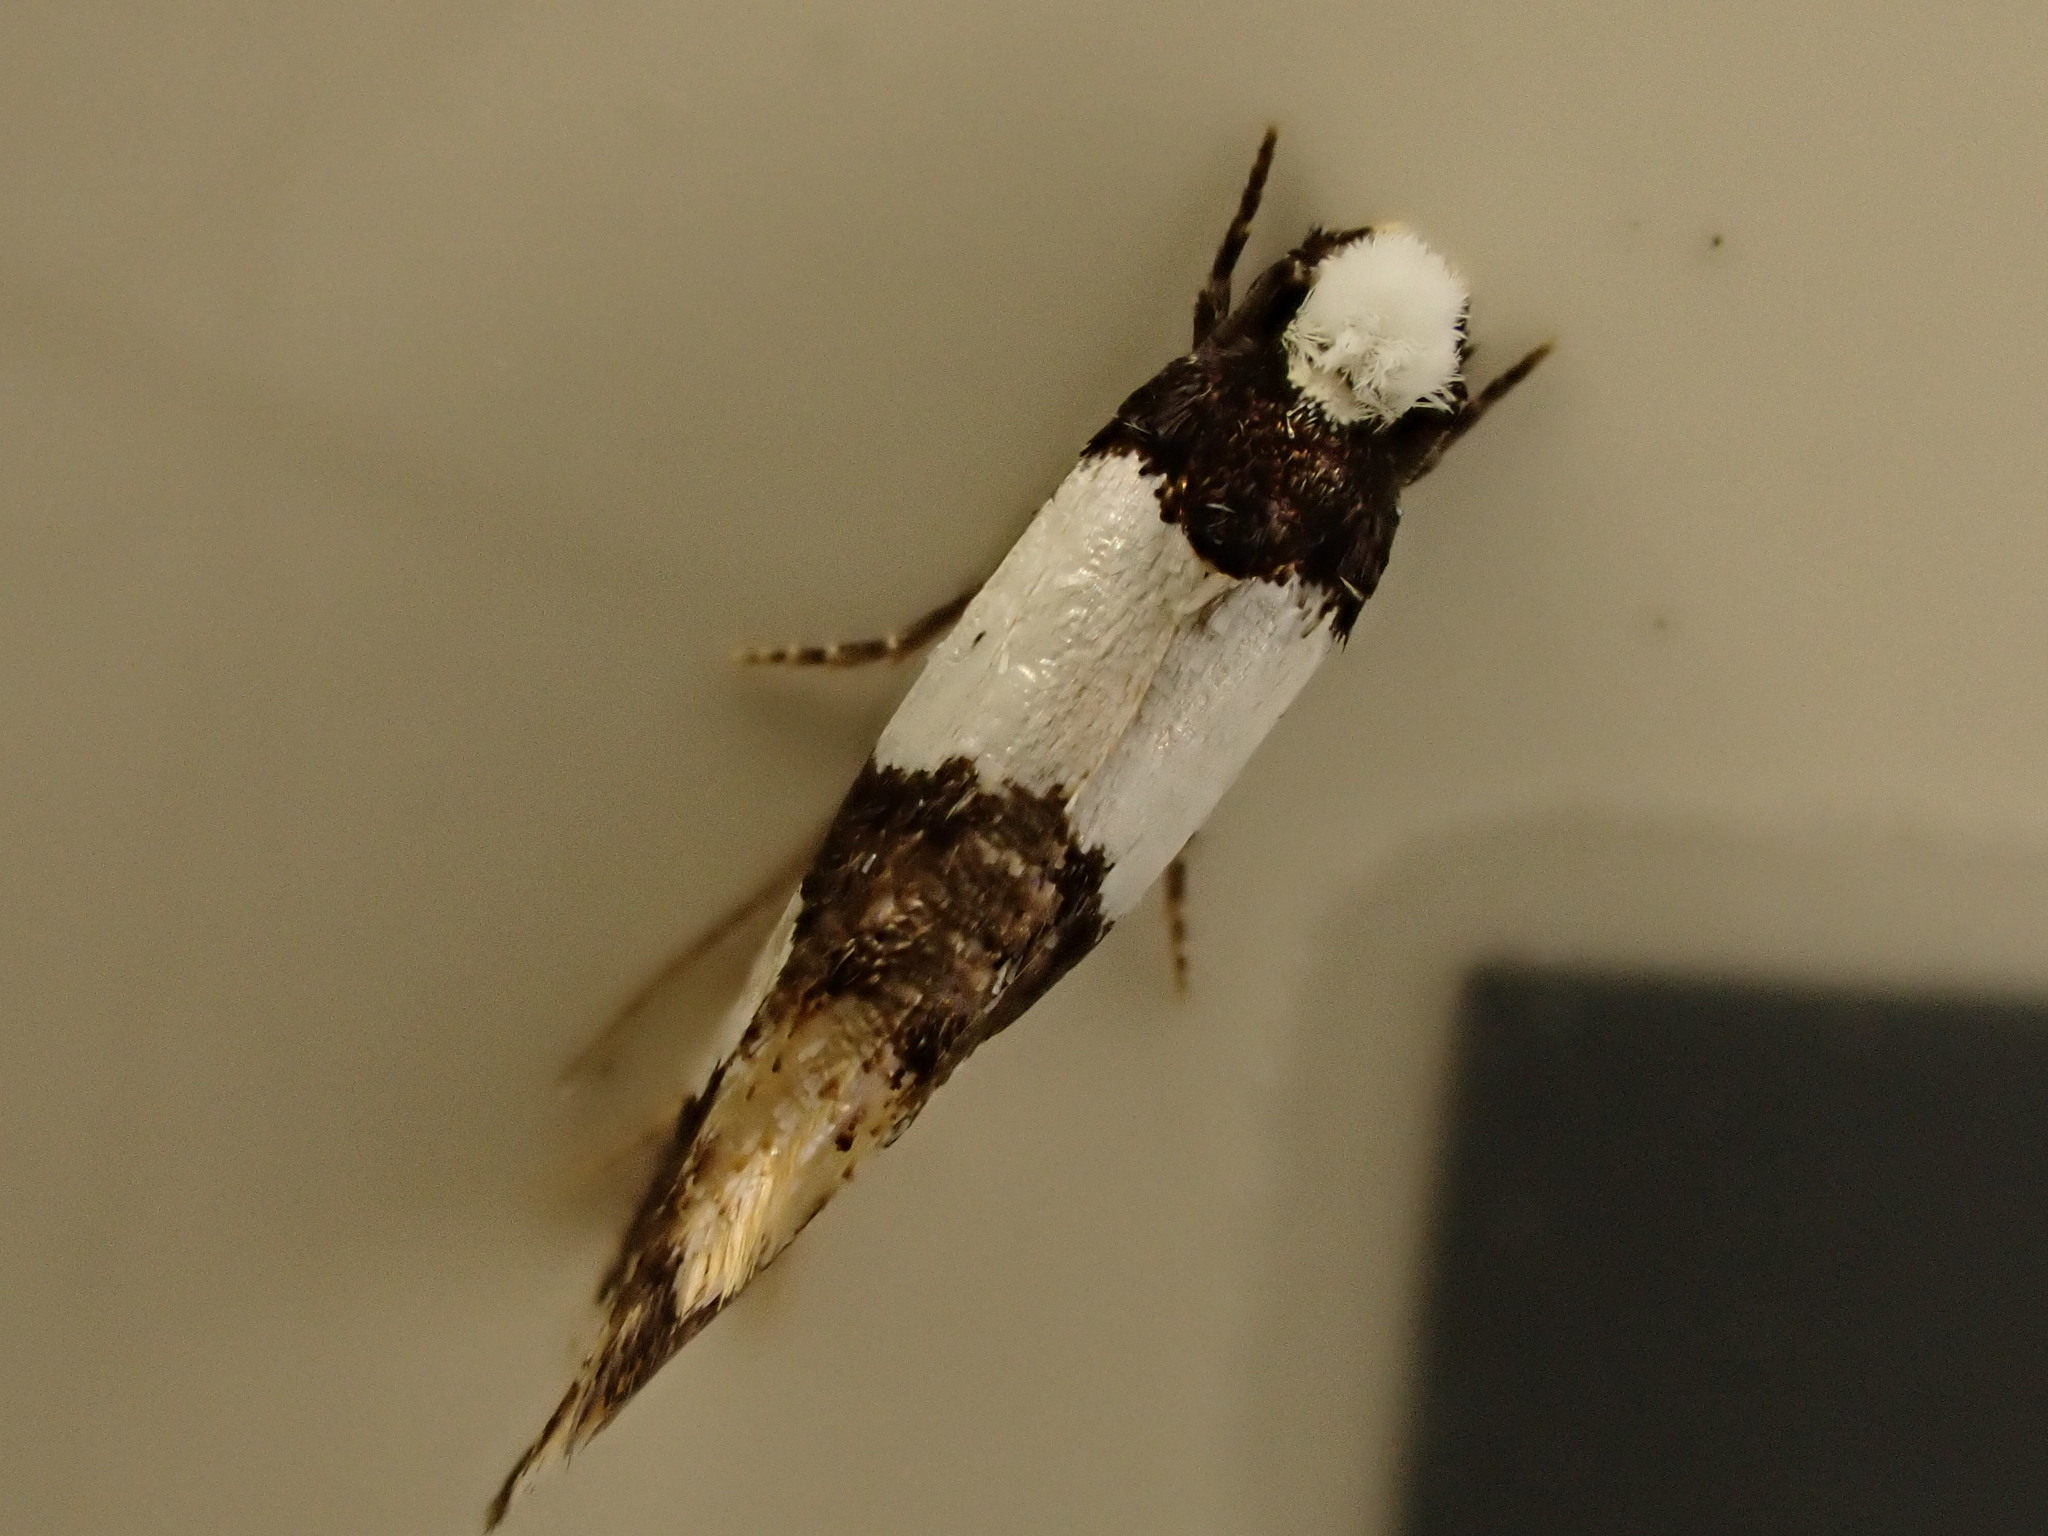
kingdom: Animalia
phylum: Arthropoda
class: Insecta
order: Lepidoptera
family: Tineidae
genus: Monopis
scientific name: Monopis icterogastra
